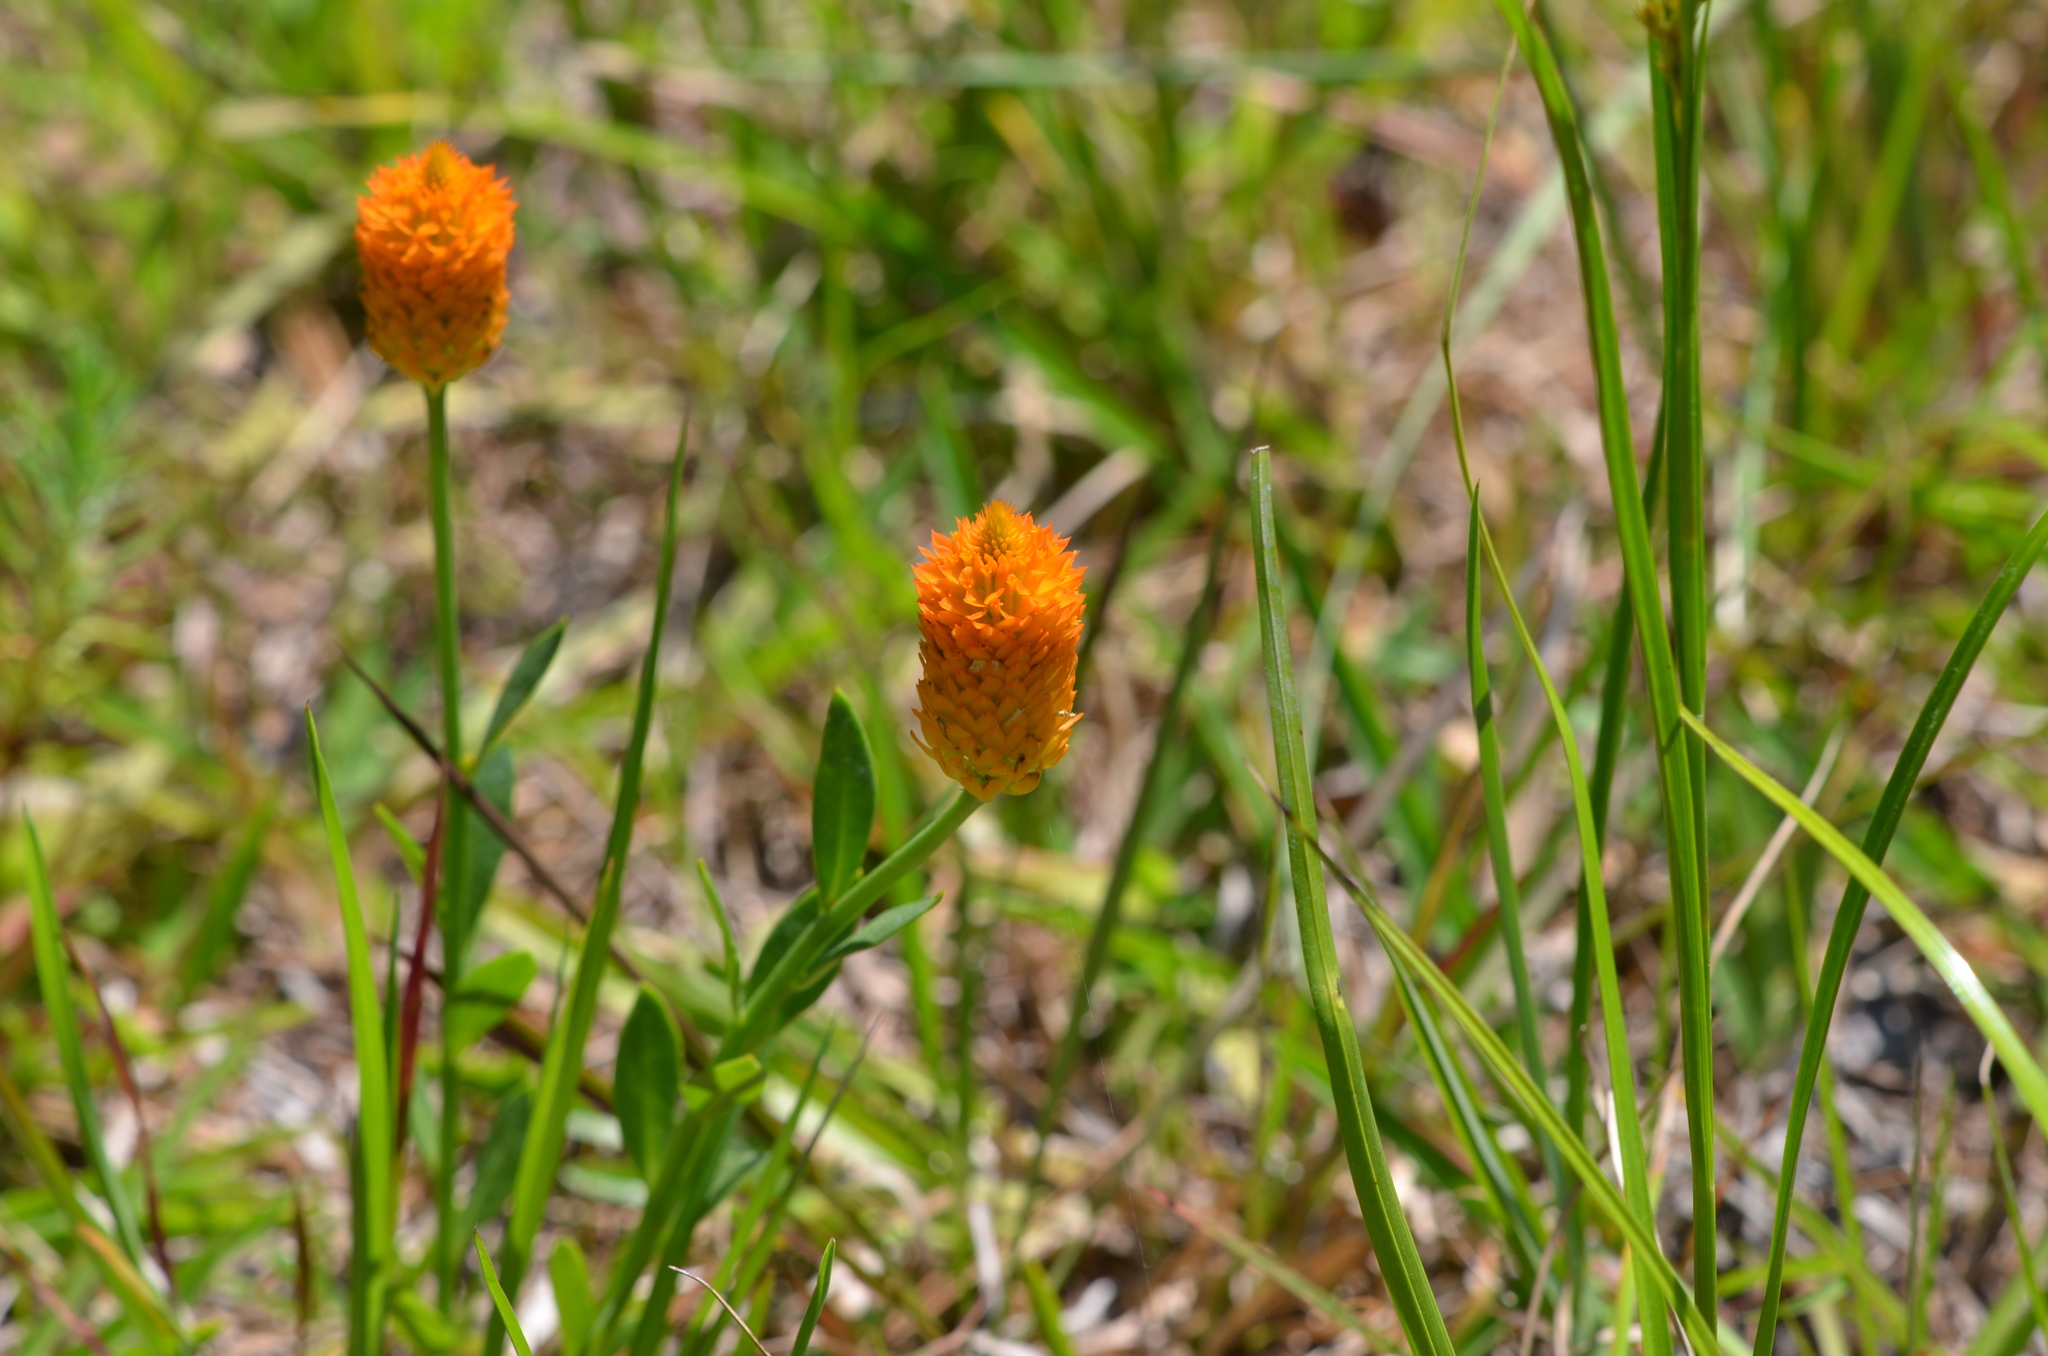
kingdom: Plantae
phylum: Tracheophyta
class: Magnoliopsida
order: Fabales
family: Polygalaceae
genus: Polygala
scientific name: Polygala lutea
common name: Orange milkwort
